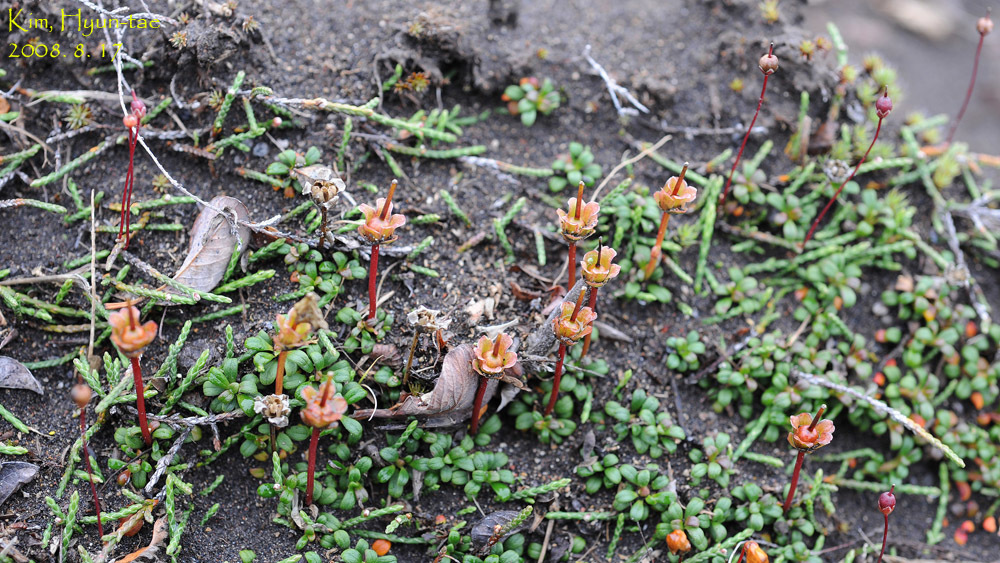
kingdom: Plantae
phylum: Tracheophyta
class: Magnoliopsida
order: Ericales
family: Diapensiaceae
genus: Diapensia
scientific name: Diapensia obovata
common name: Alaska diapensia
